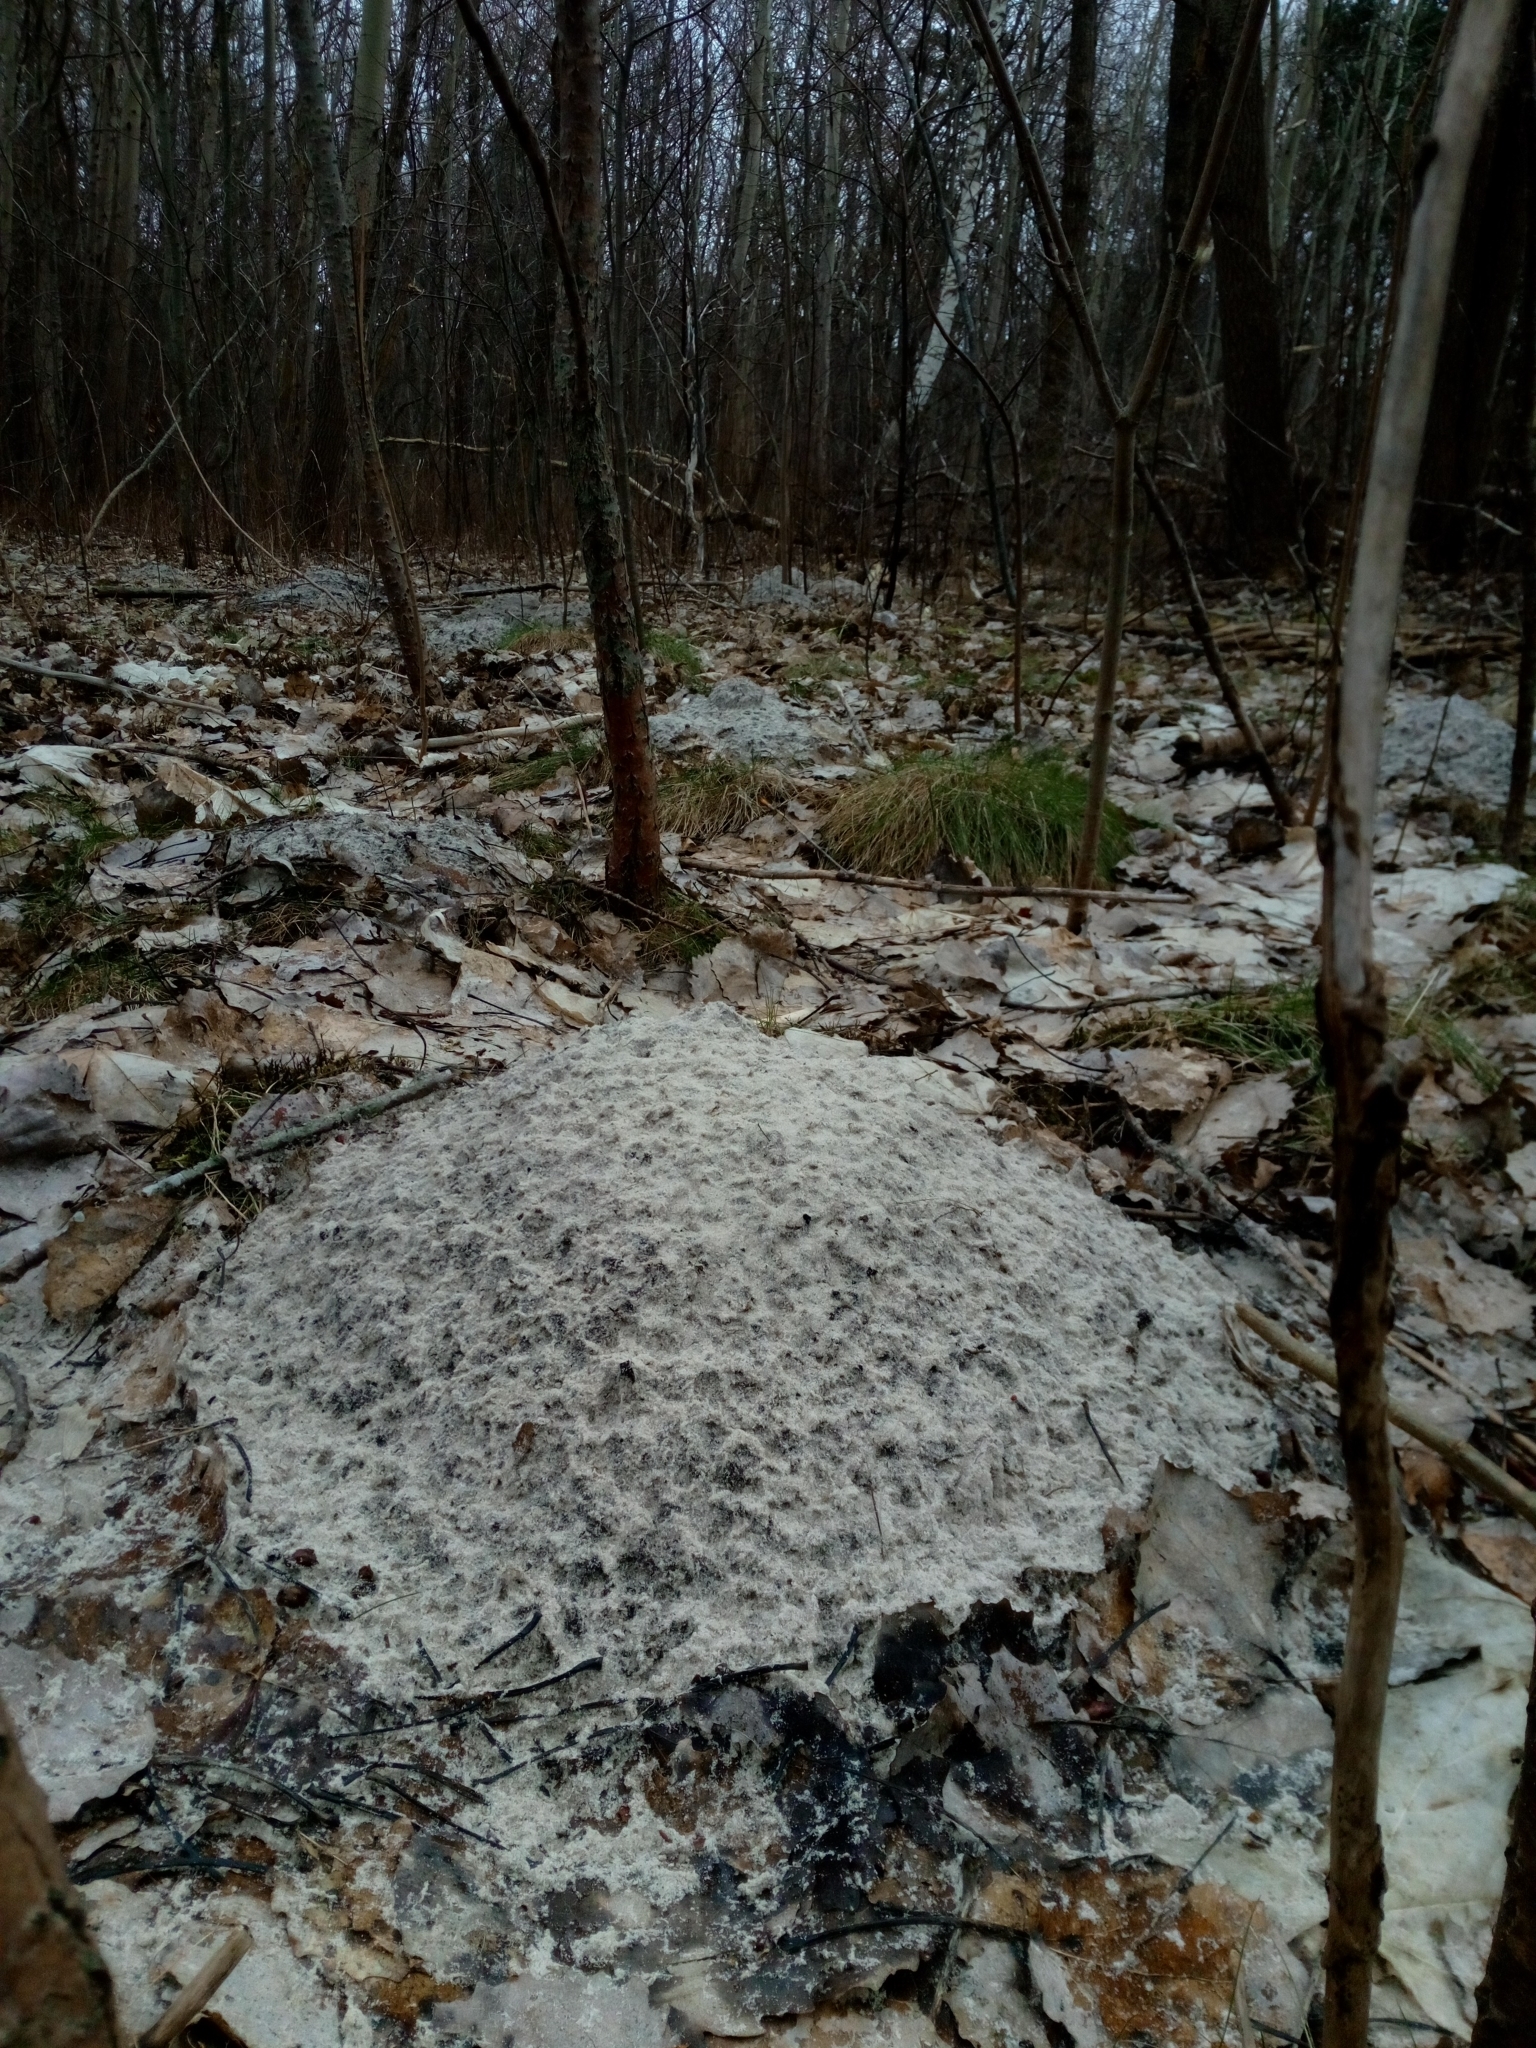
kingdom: Animalia
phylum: Chordata
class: Mammalia
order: Soricomorpha
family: Talpidae
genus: Talpa
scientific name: Talpa europaea
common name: European mole
